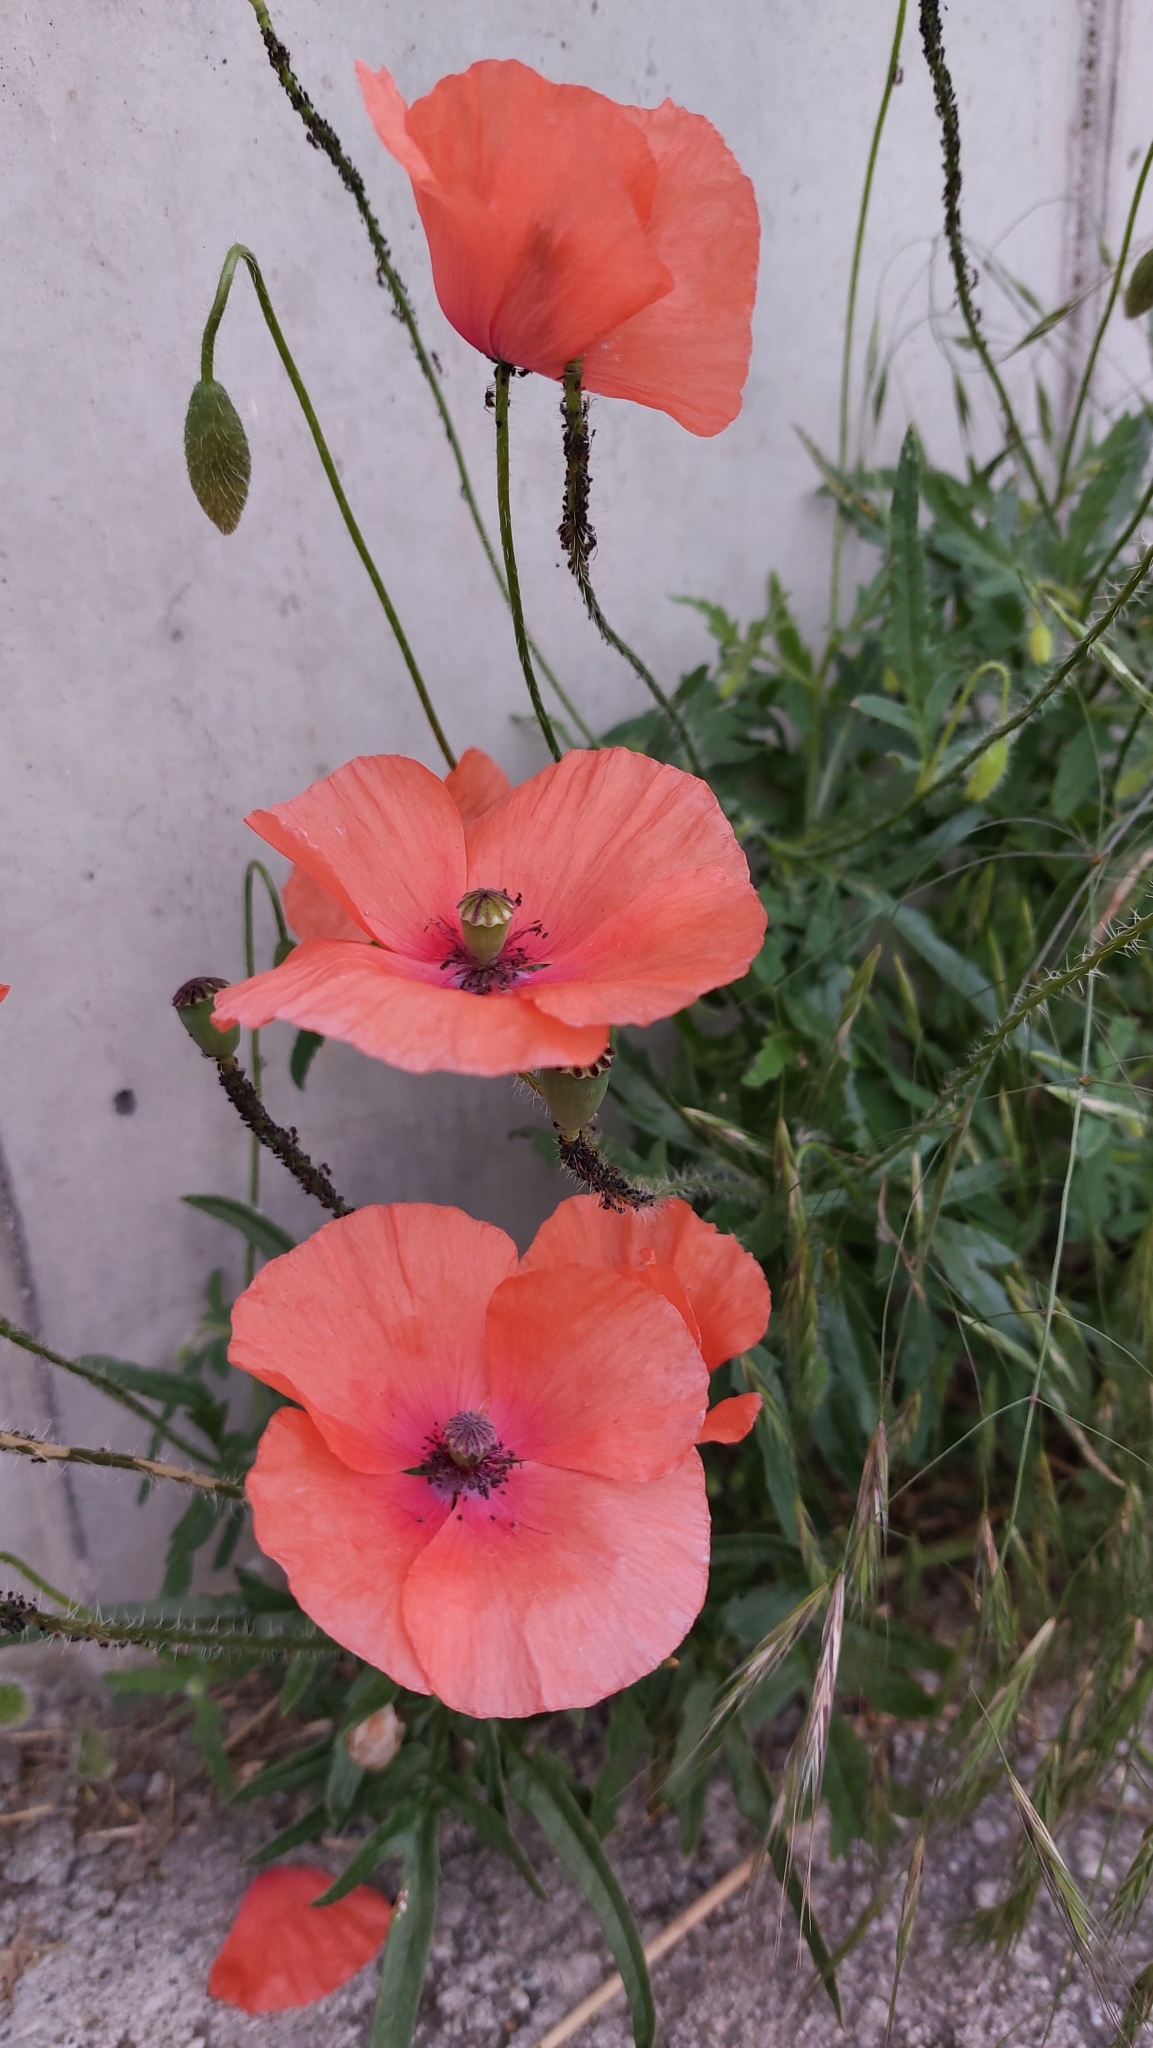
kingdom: Plantae
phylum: Tracheophyta
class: Magnoliopsida
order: Ranunculales
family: Papaveraceae
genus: Papaver
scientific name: Papaver rhoeas
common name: Corn poppy
